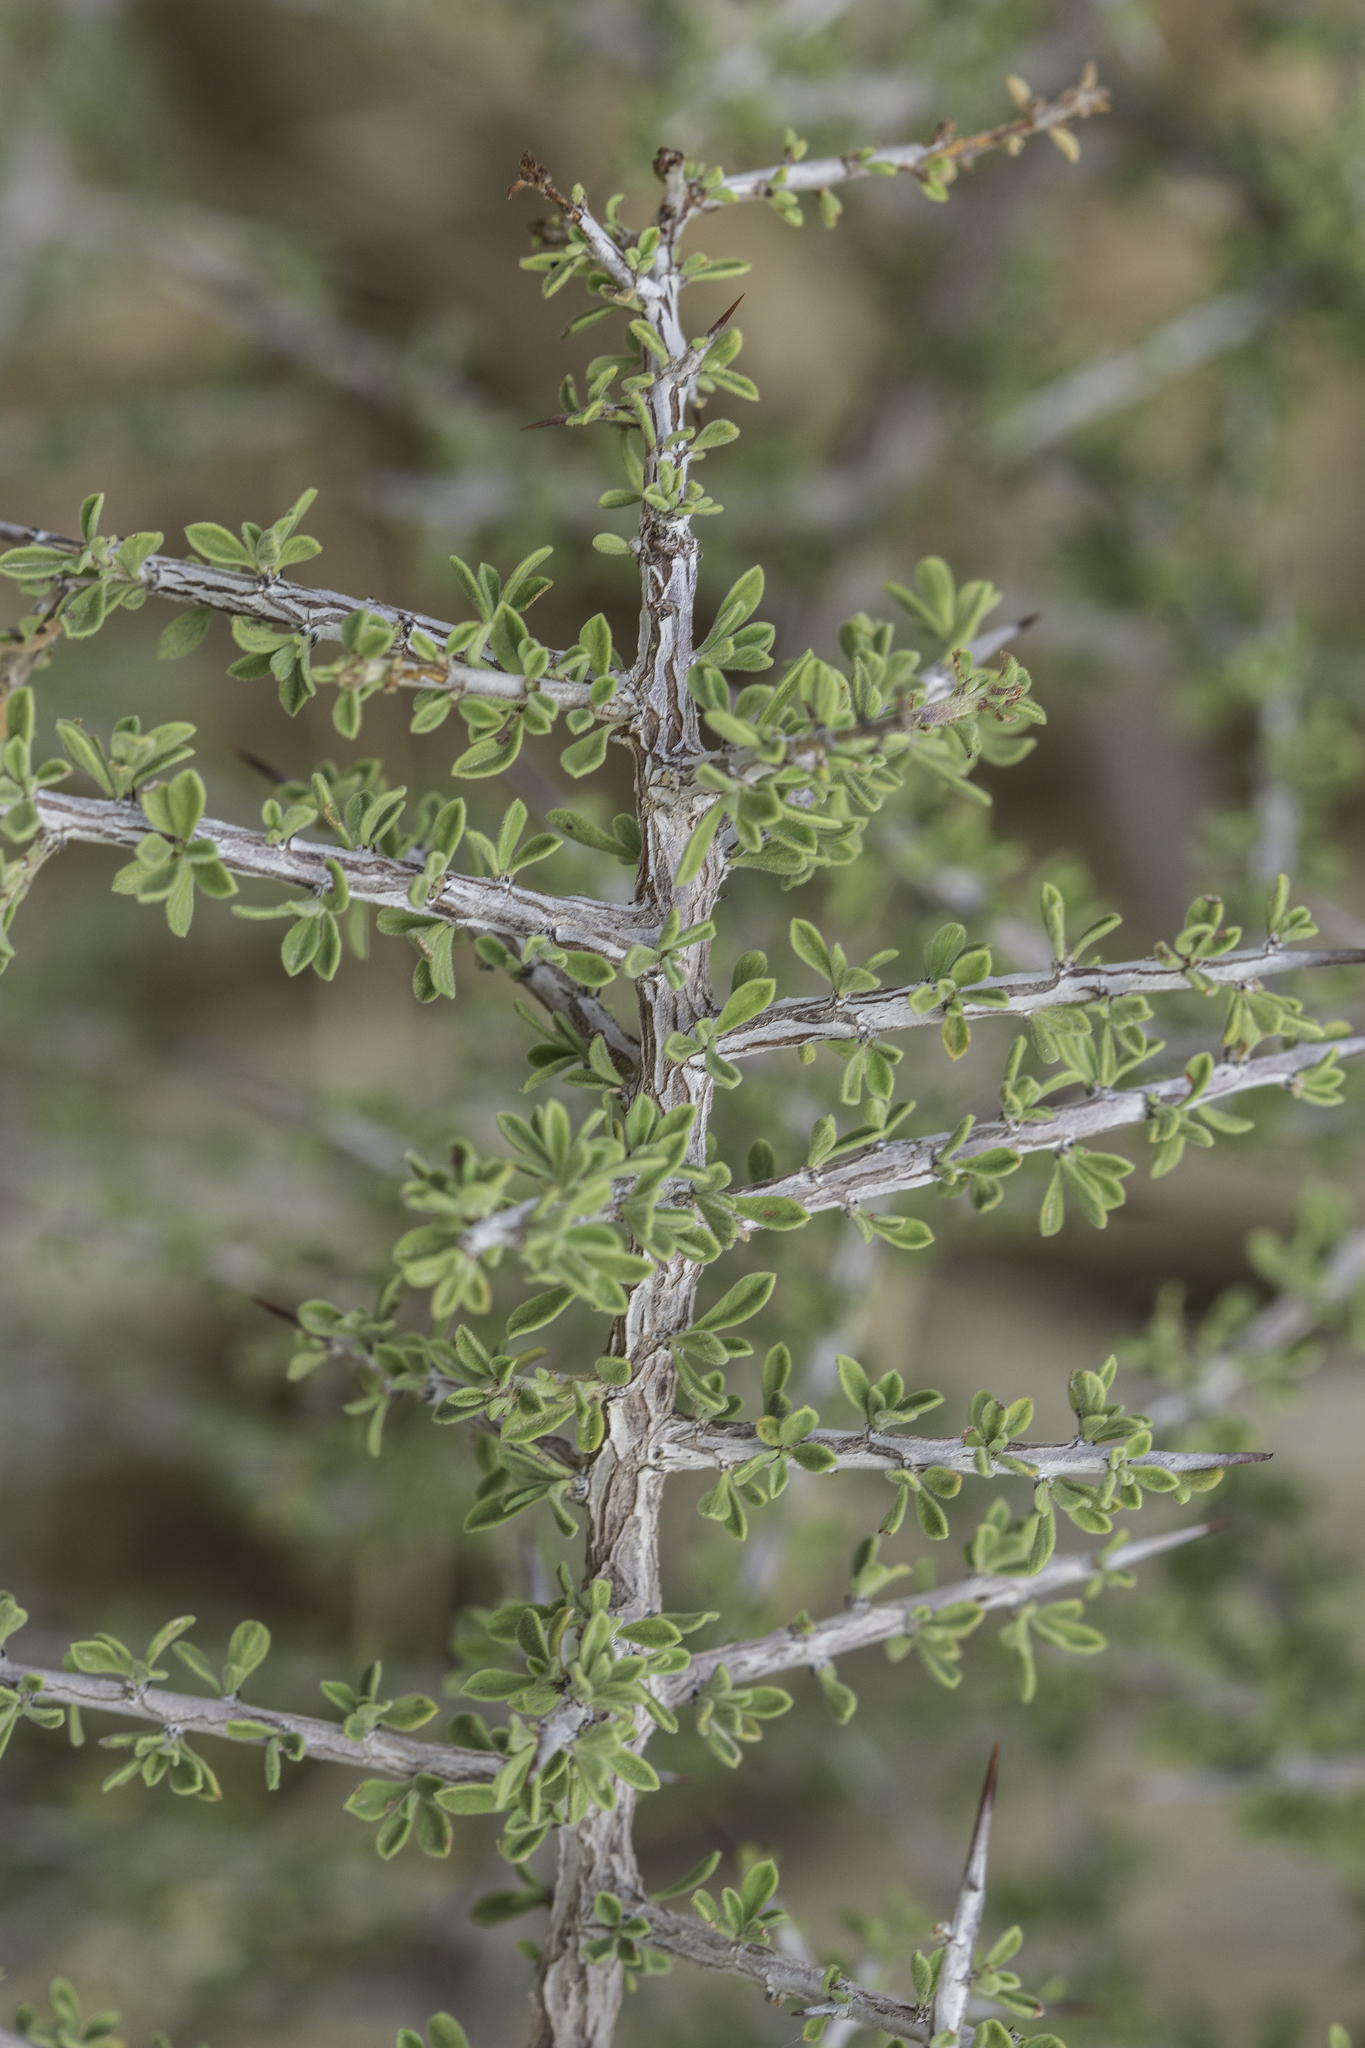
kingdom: Plantae
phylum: Tracheophyta
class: Magnoliopsida
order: Rosales
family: Rhamnaceae
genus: Condalia
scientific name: Condalia warnockii
